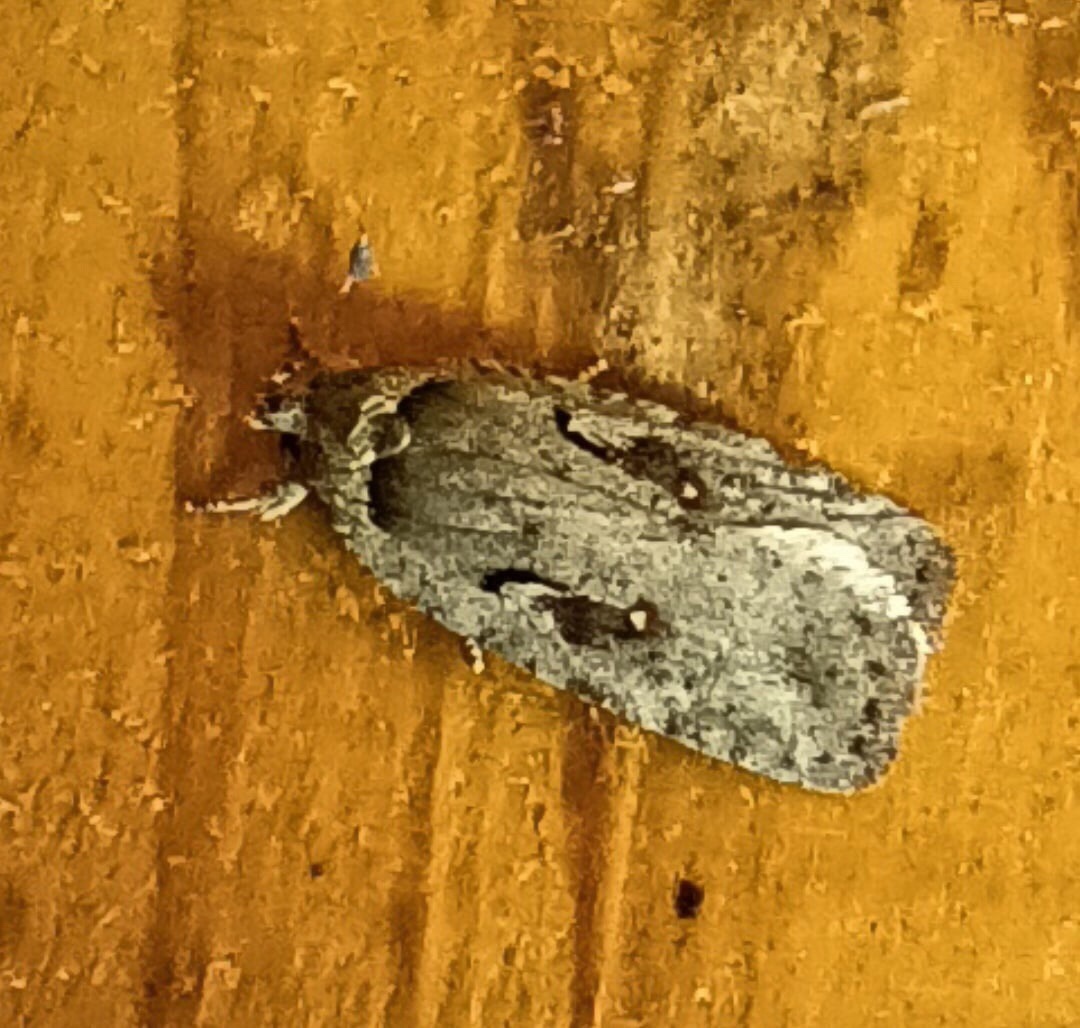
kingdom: Animalia
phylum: Arthropoda
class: Insecta
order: Lepidoptera
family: Depressariidae
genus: Agonopterix
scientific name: Agonopterix ocellana
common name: Red-letter flat-body
